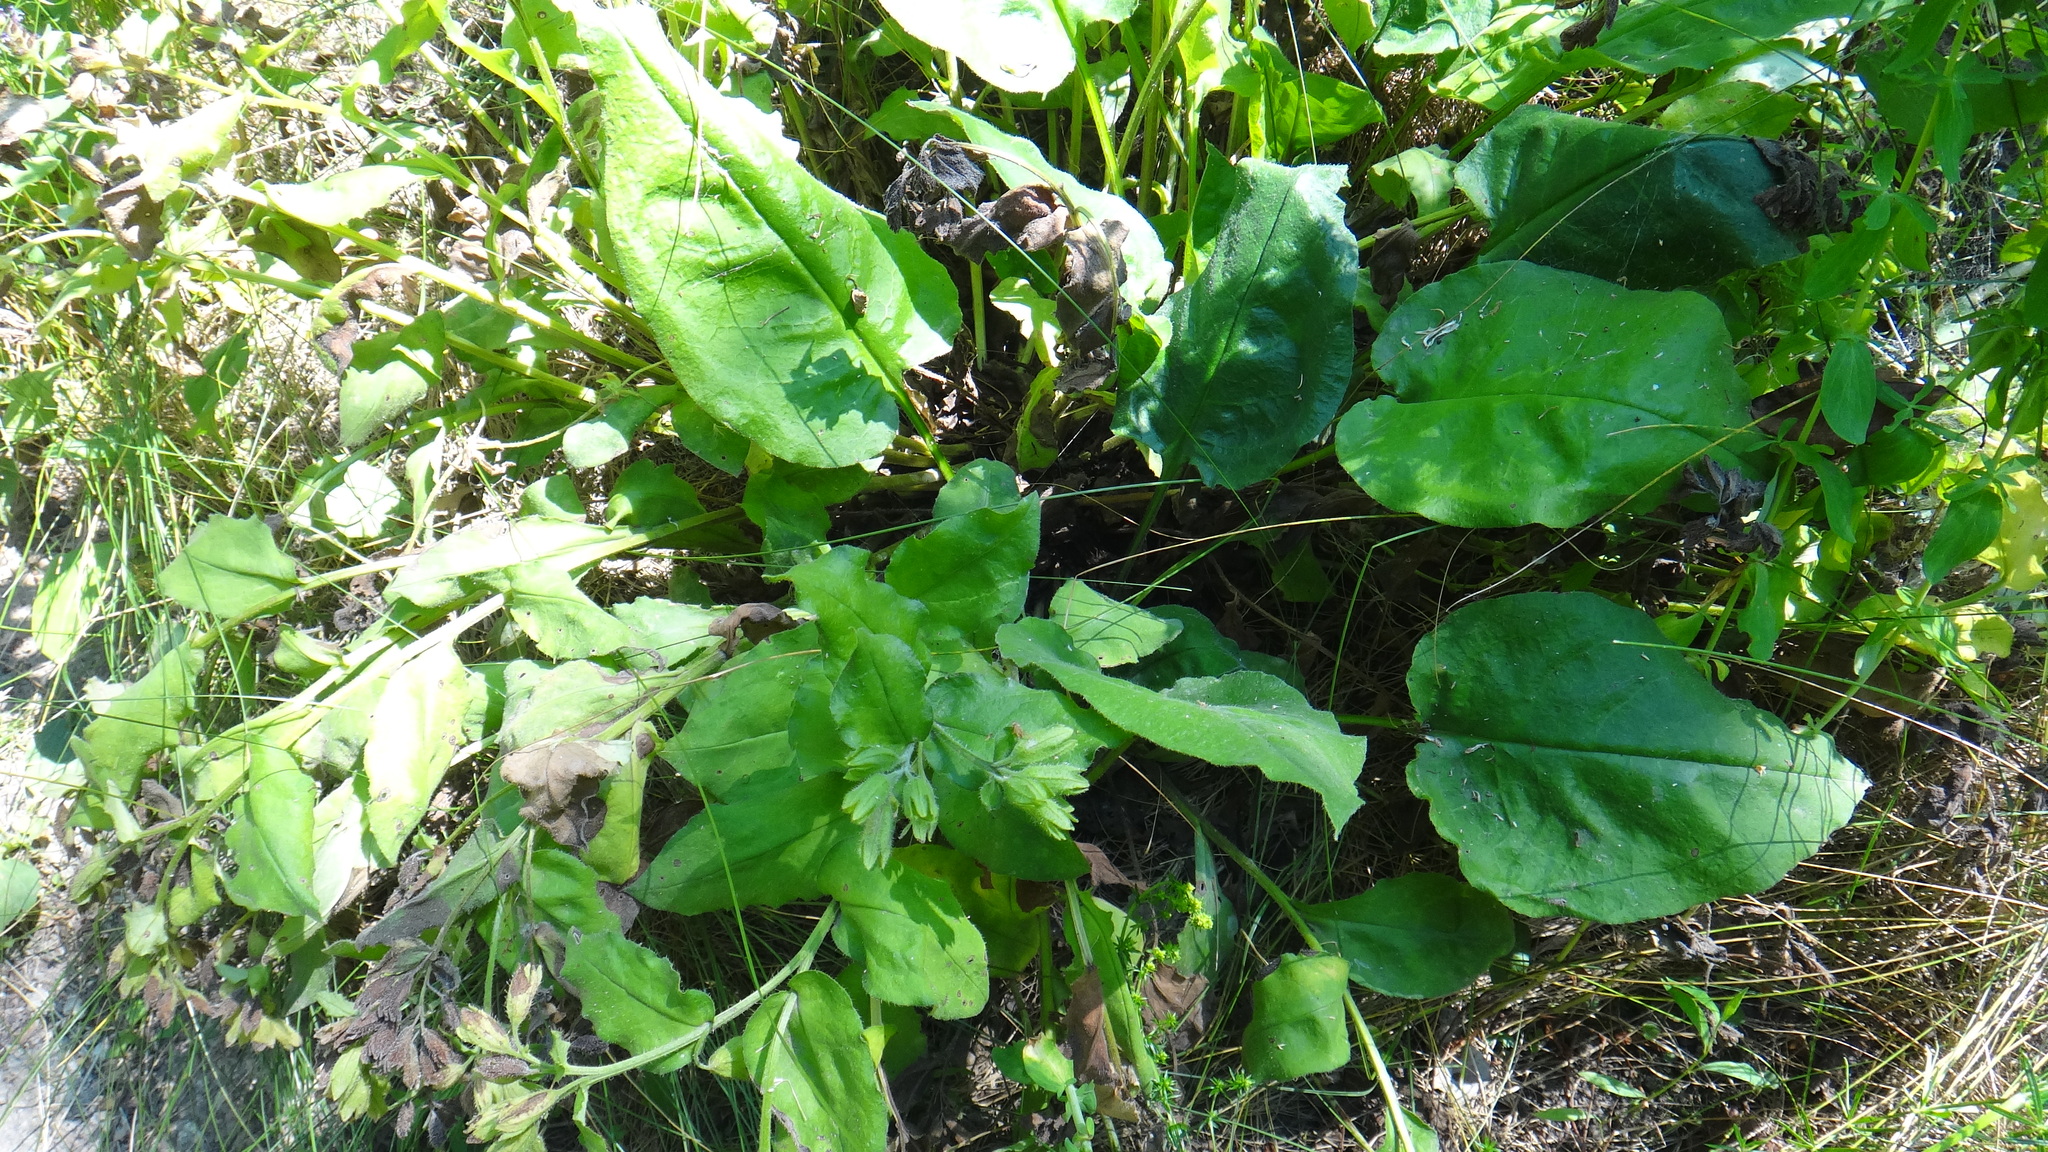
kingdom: Plantae
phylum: Tracheophyta
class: Magnoliopsida
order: Boraginales
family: Boraginaceae
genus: Pulmonaria
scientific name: Pulmonaria obscura
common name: Suffolk lungwort
